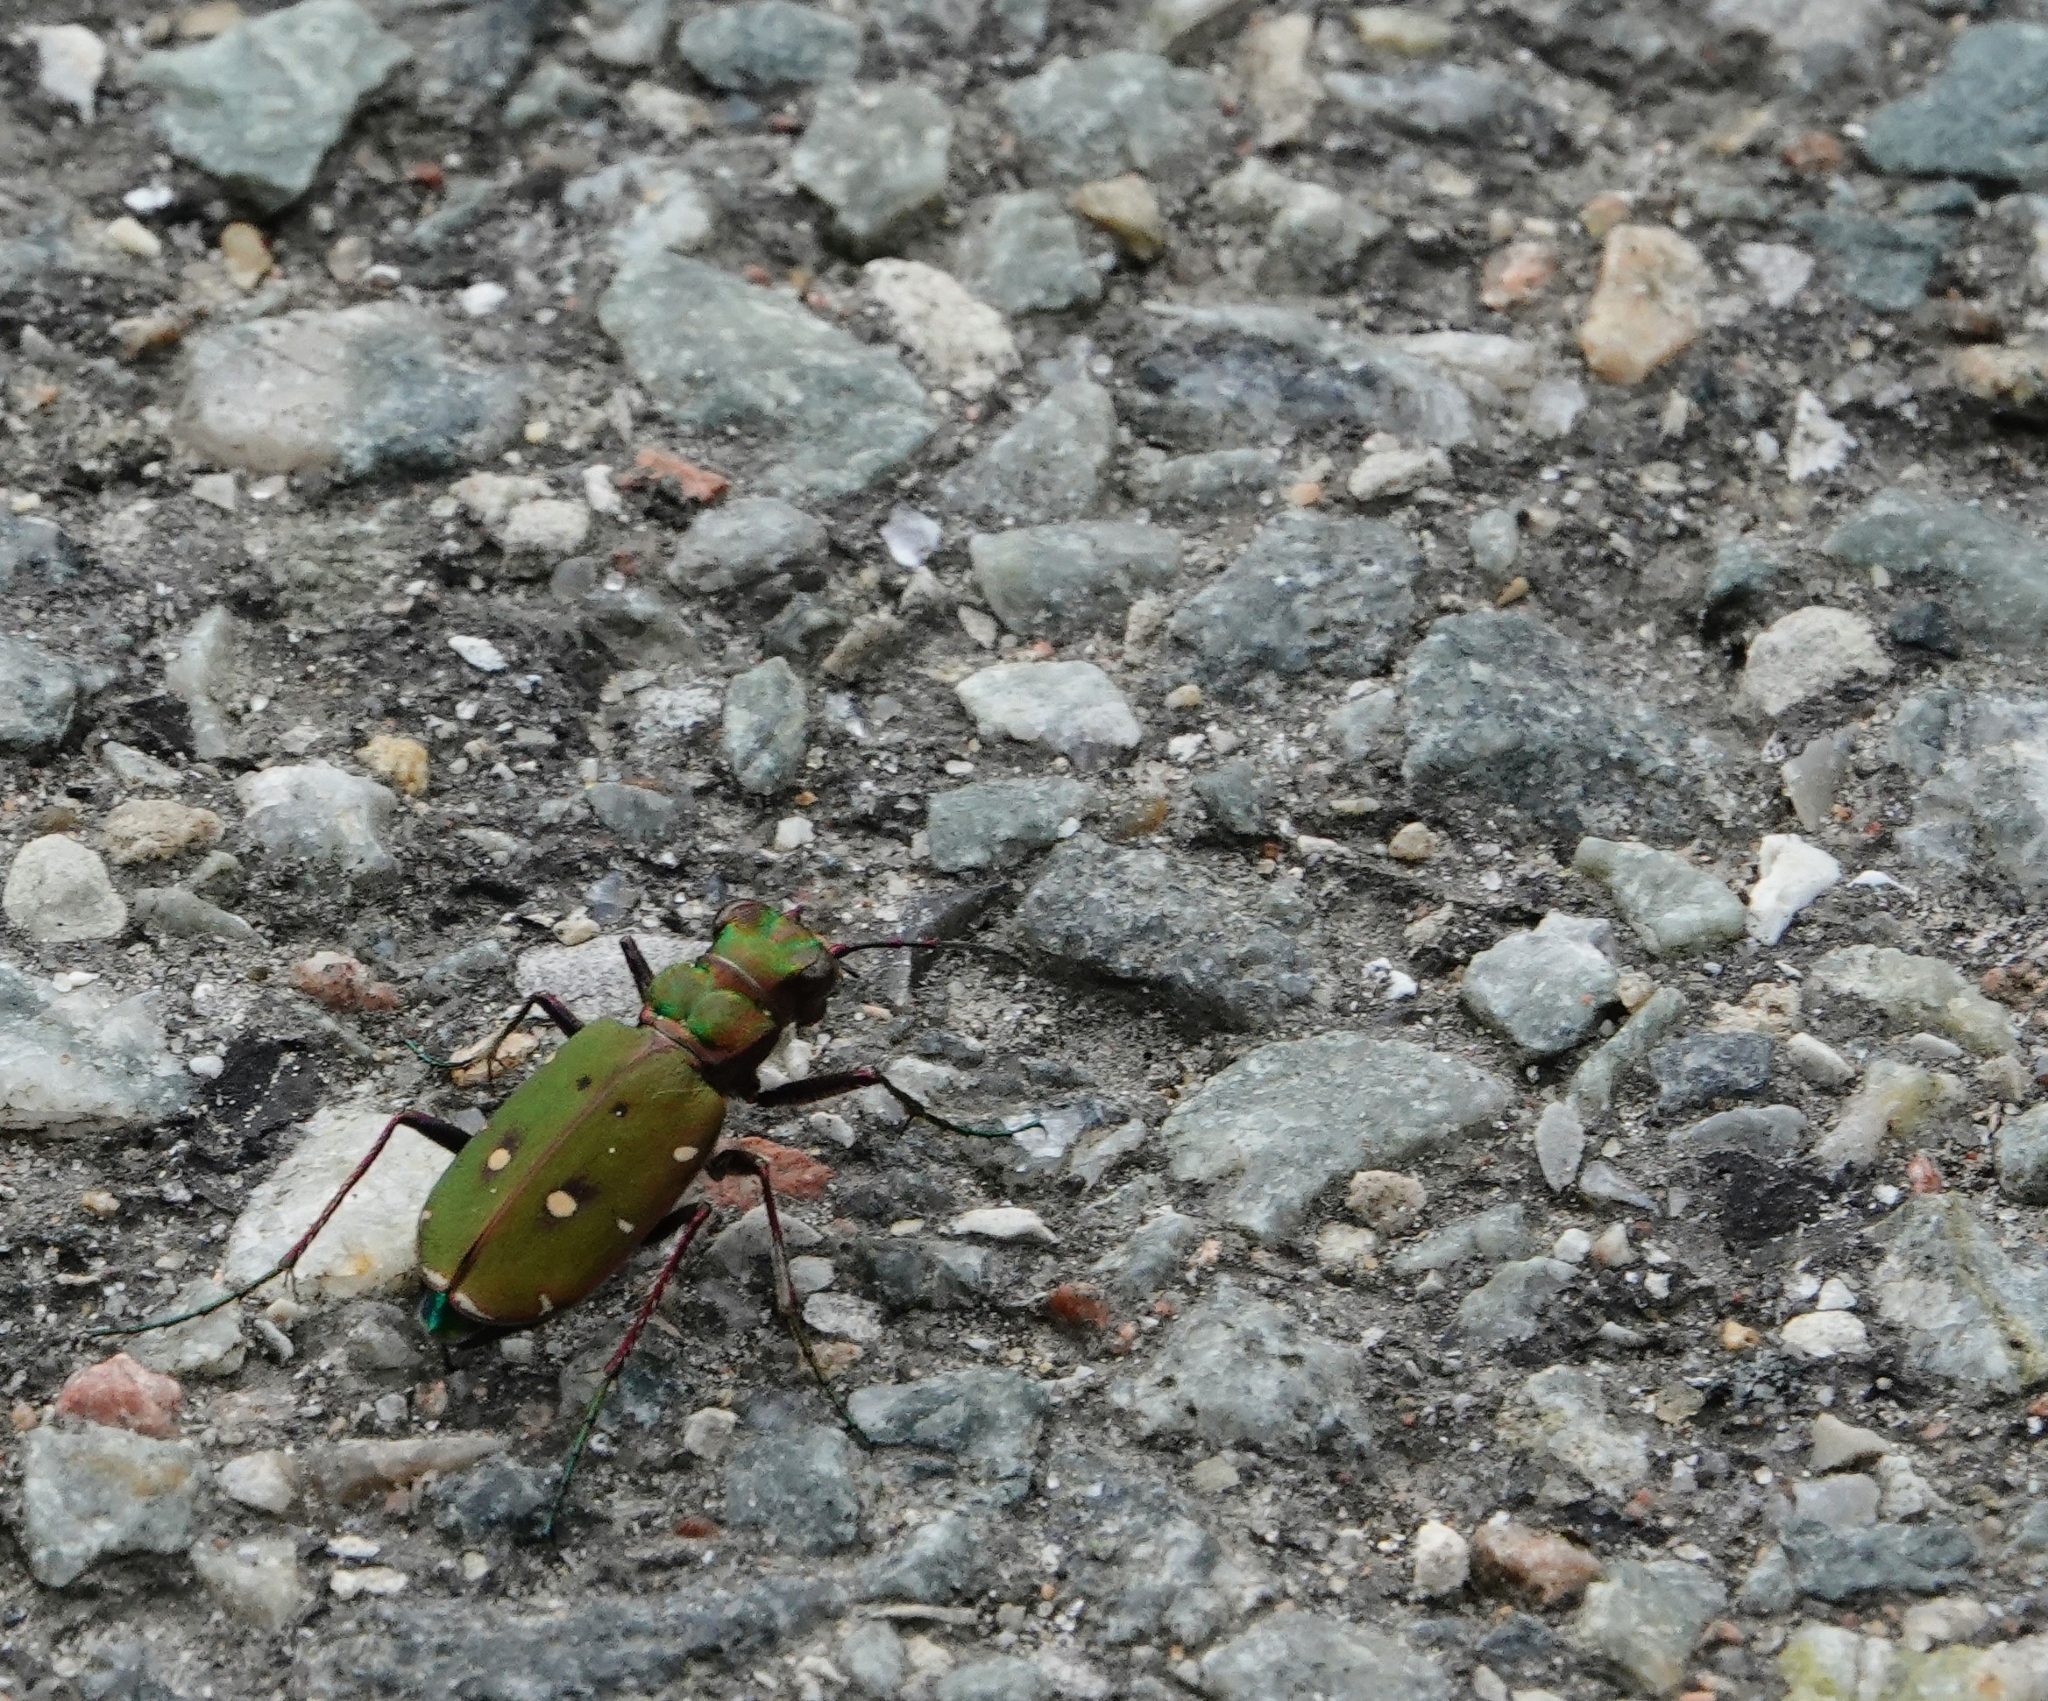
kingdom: Animalia
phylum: Arthropoda
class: Insecta
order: Coleoptera
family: Carabidae
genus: Cicindela
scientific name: Cicindela campestris
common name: Common tiger beetle
